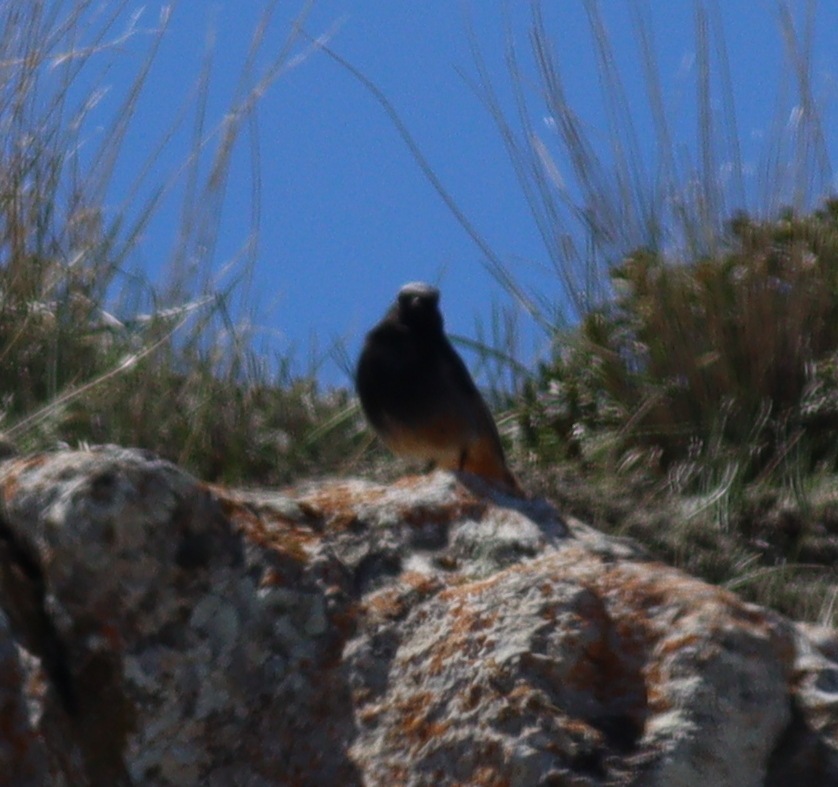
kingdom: Animalia
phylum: Chordata
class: Aves
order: Passeriformes
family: Muscicapidae
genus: Phoenicurus
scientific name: Phoenicurus ochruros
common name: Black redstart
